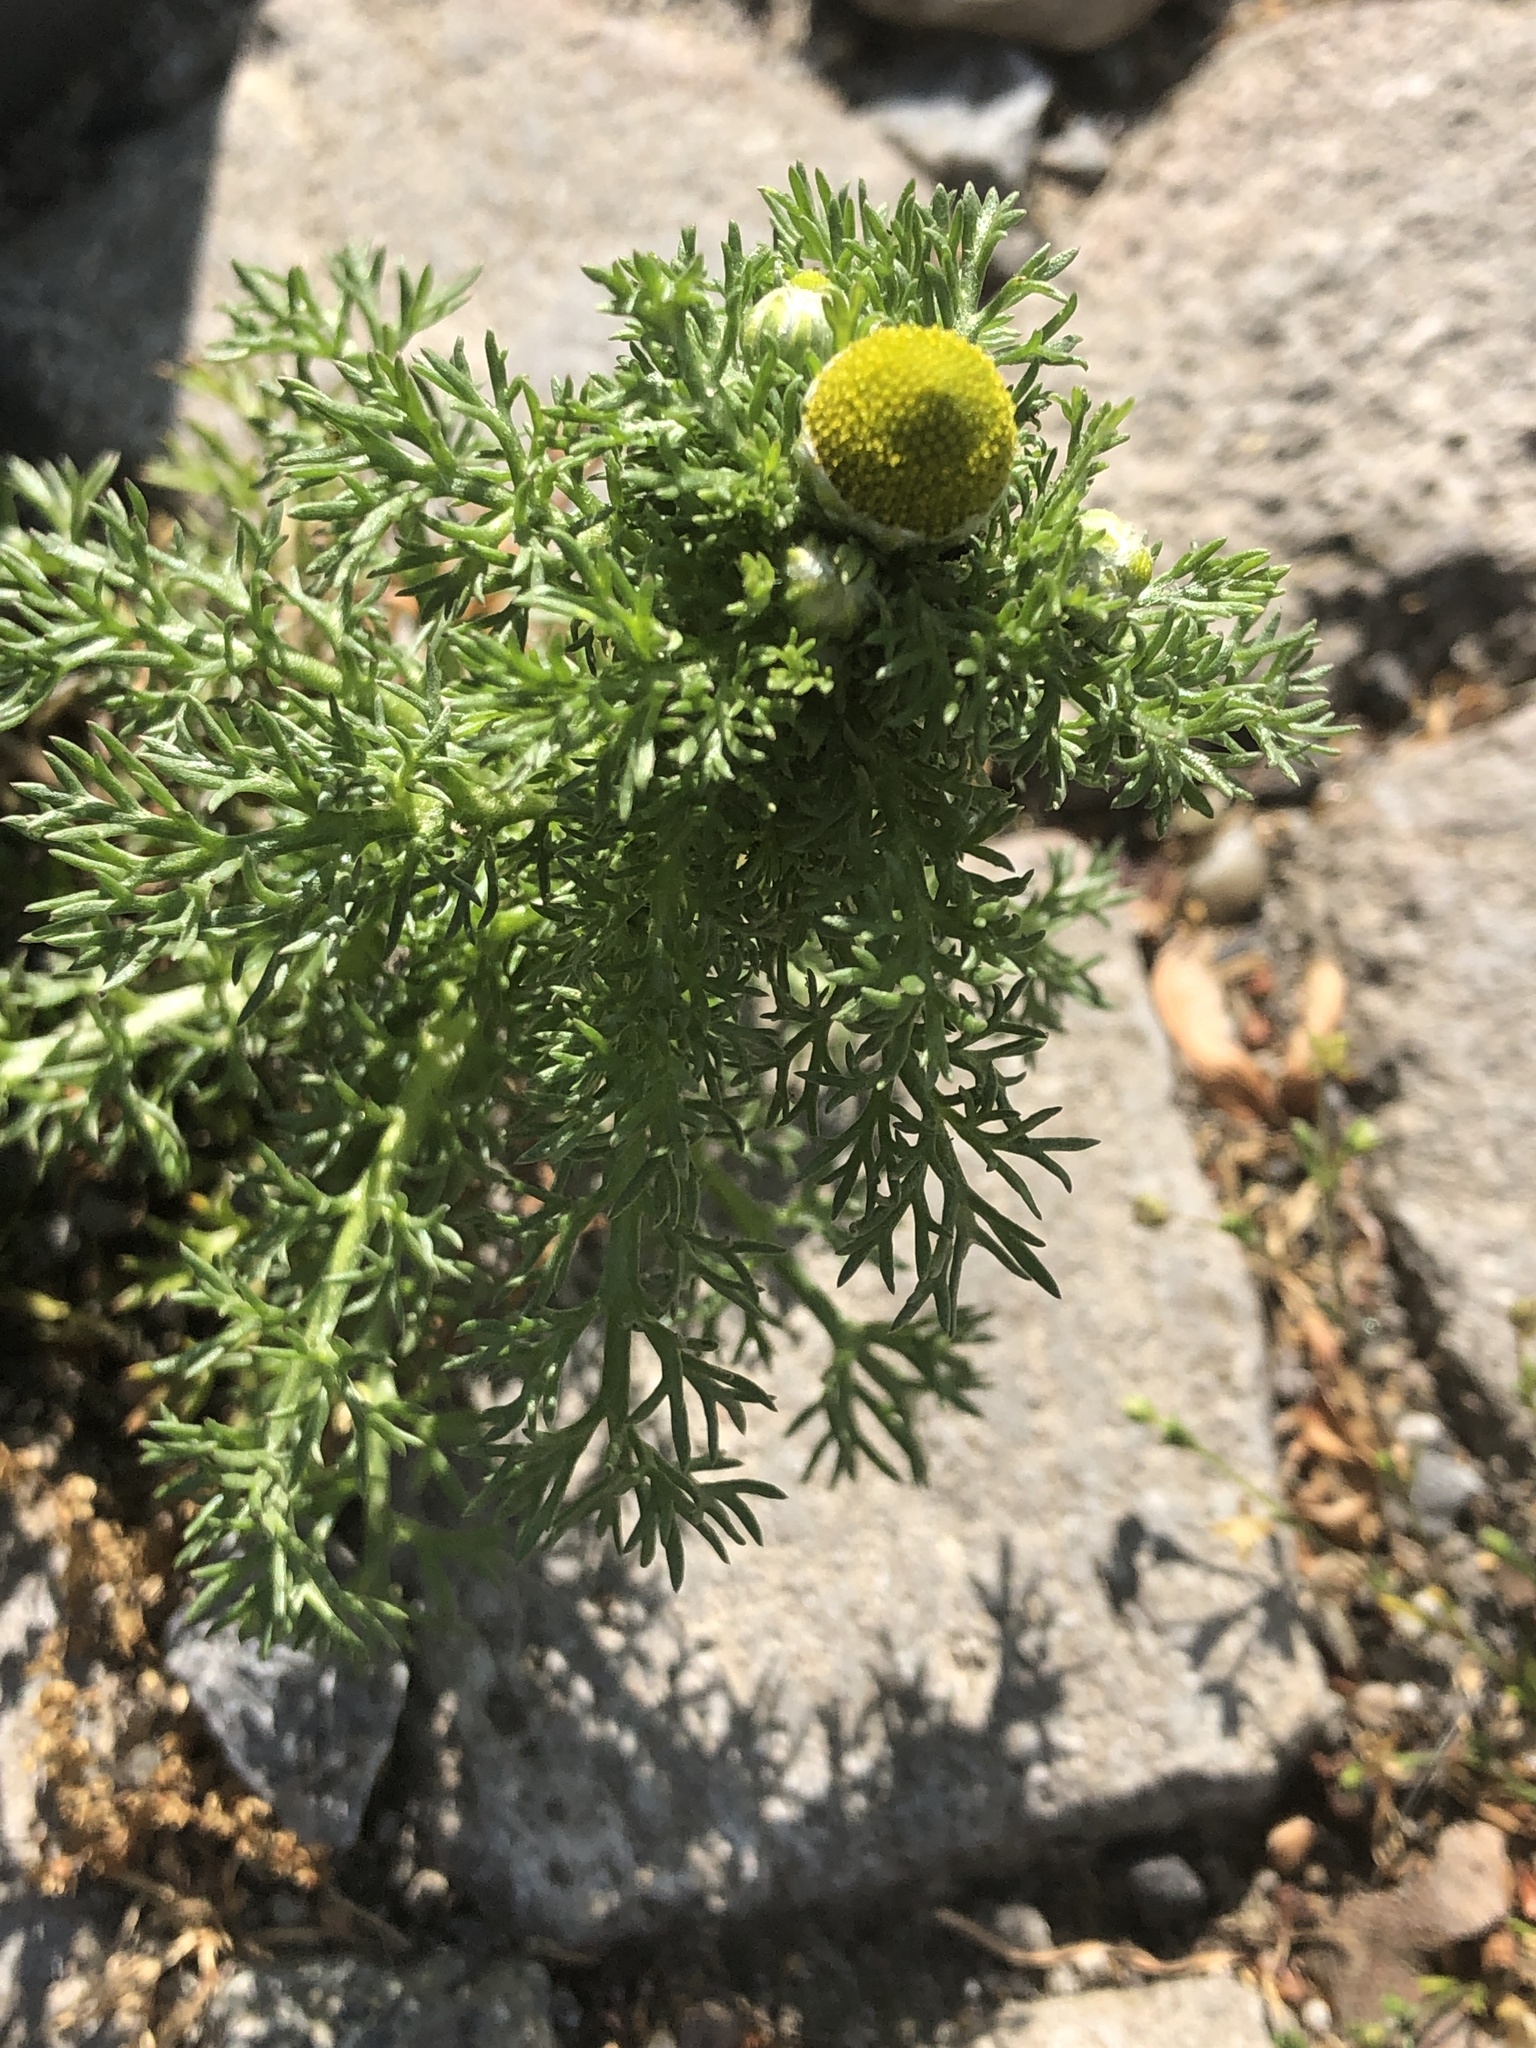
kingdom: Plantae
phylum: Tracheophyta
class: Magnoliopsida
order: Asterales
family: Asteraceae
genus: Matricaria
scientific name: Matricaria discoidea
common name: Disc mayweed
